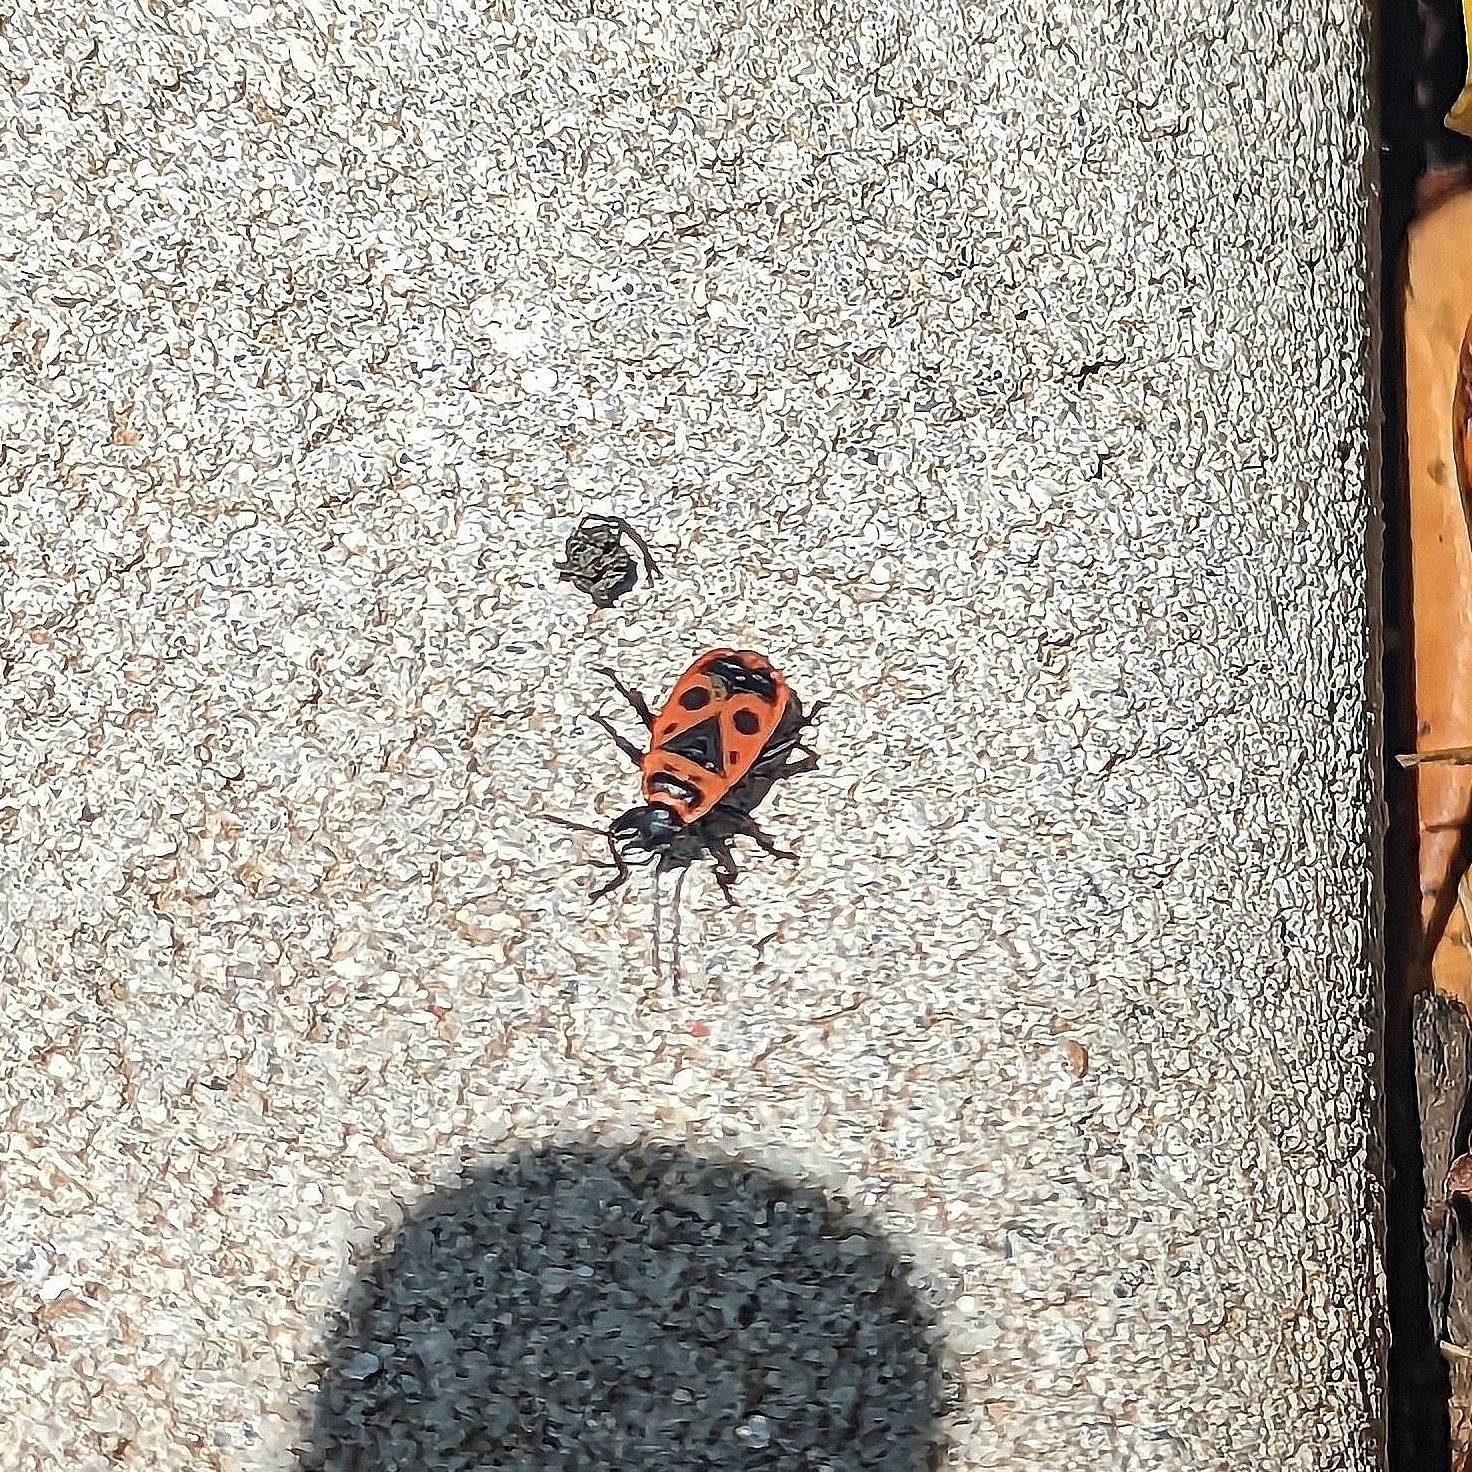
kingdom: Animalia
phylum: Arthropoda
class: Insecta
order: Hemiptera
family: Pyrrhocoridae
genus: Pyrrhocoris
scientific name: Pyrrhocoris apterus
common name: Firebug
